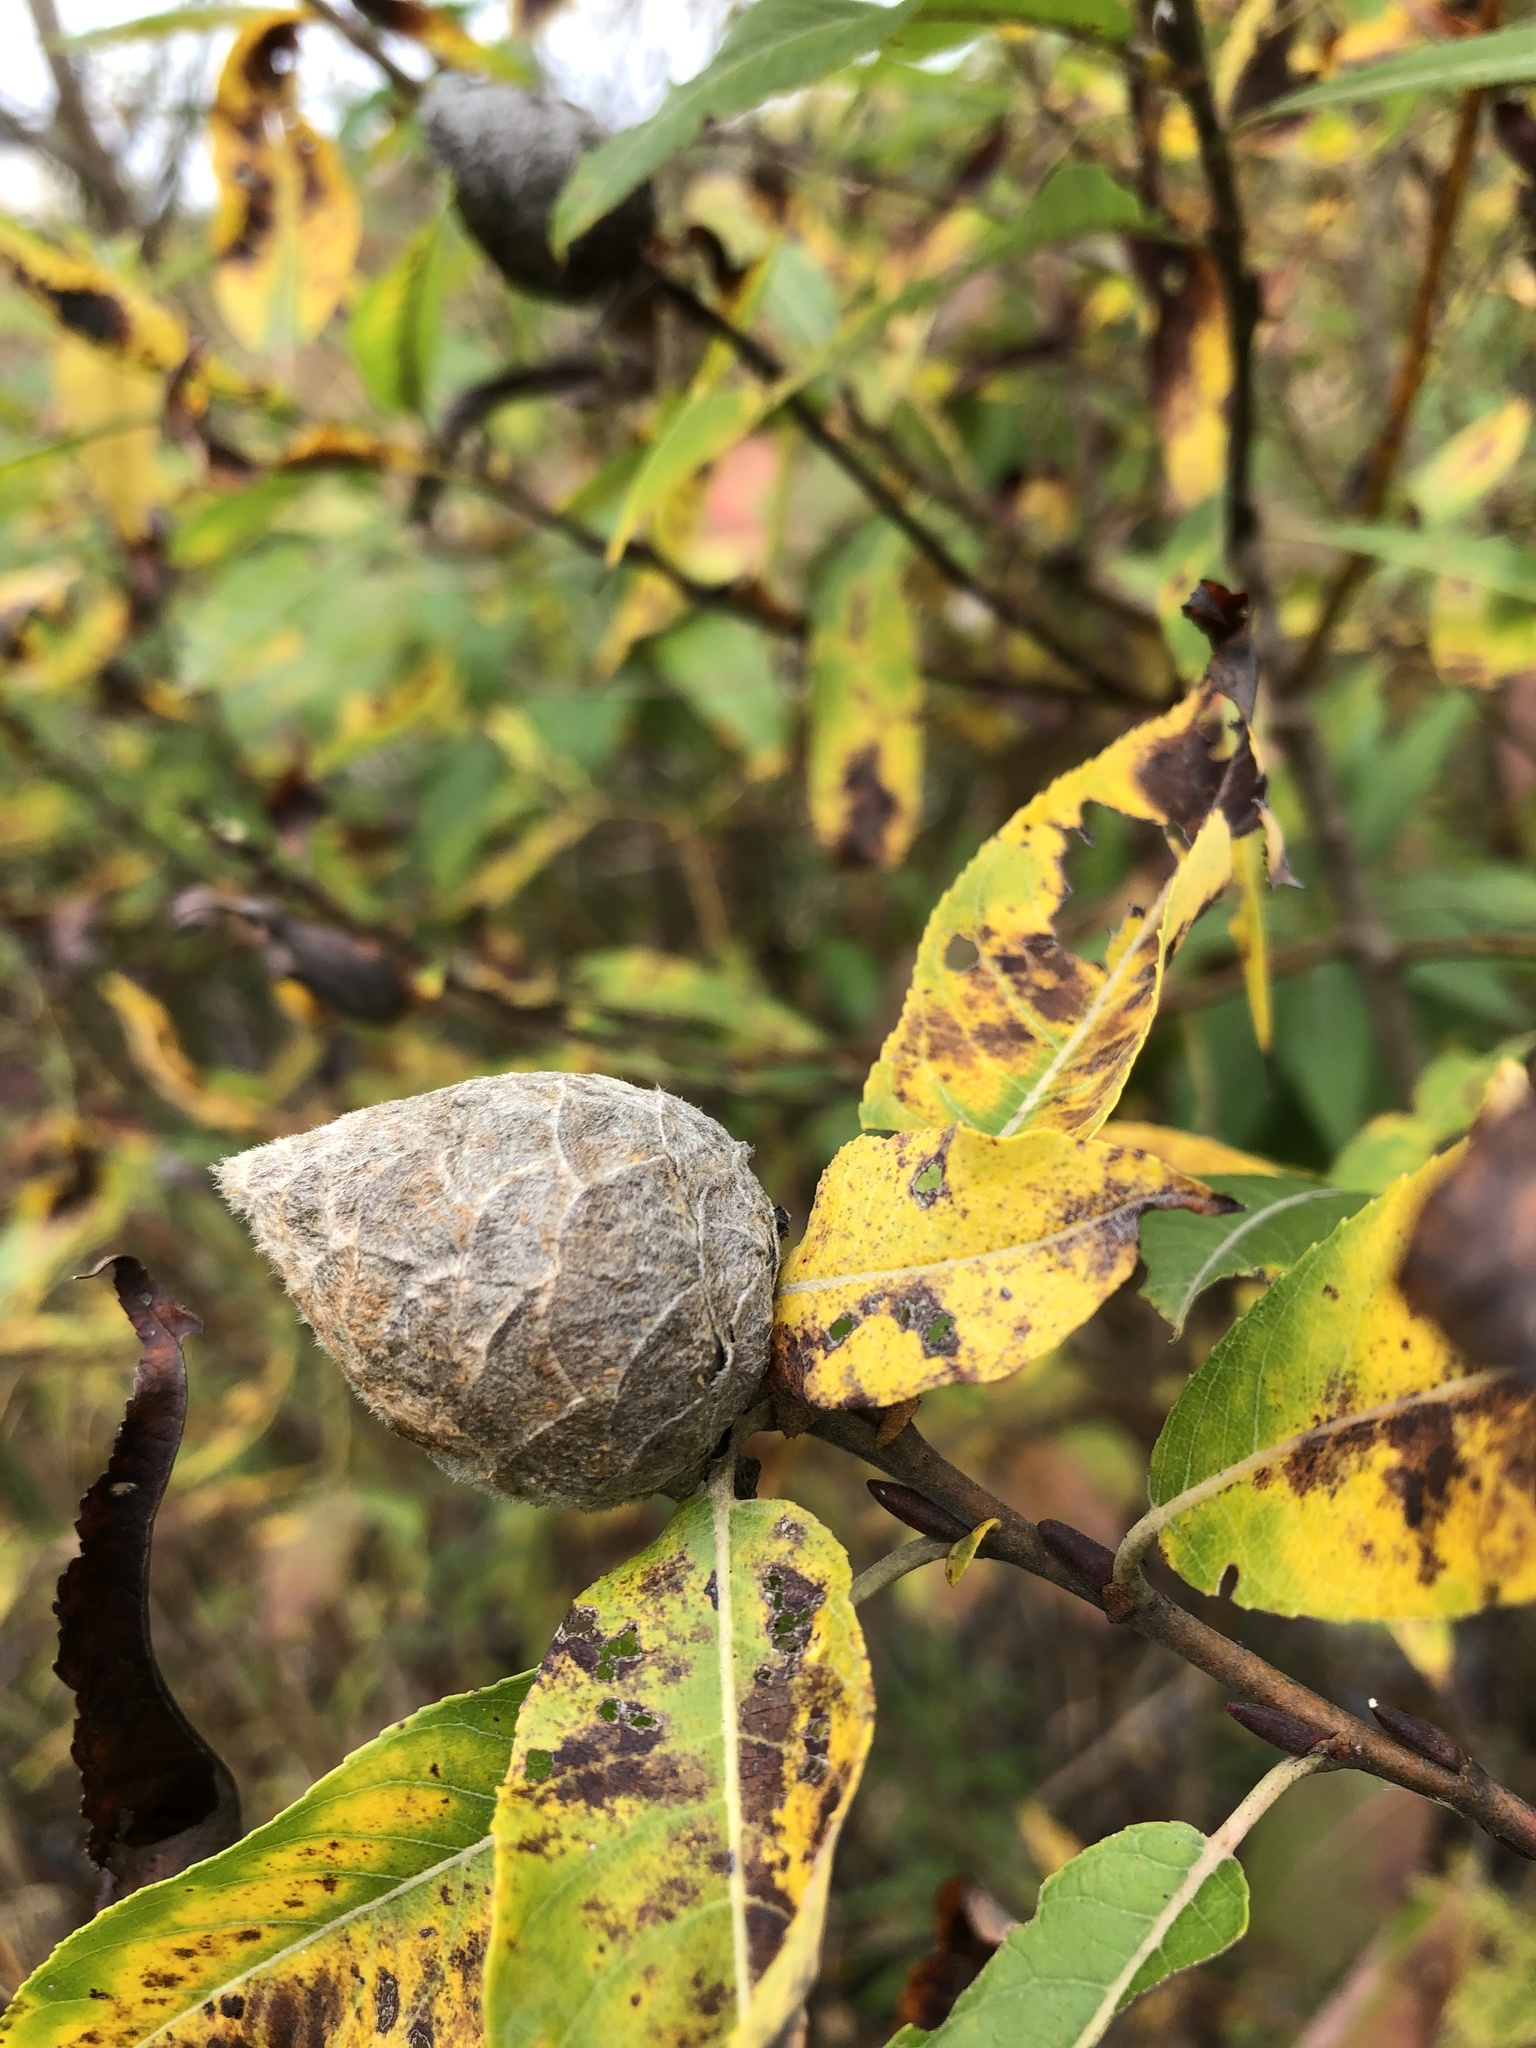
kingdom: Animalia
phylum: Arthropoda
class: Insecta
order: Diptera
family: Cecidomyiidae
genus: Rabdophaga
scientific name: Rabdophaga strobiloides
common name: Willow pinecone gall midge
